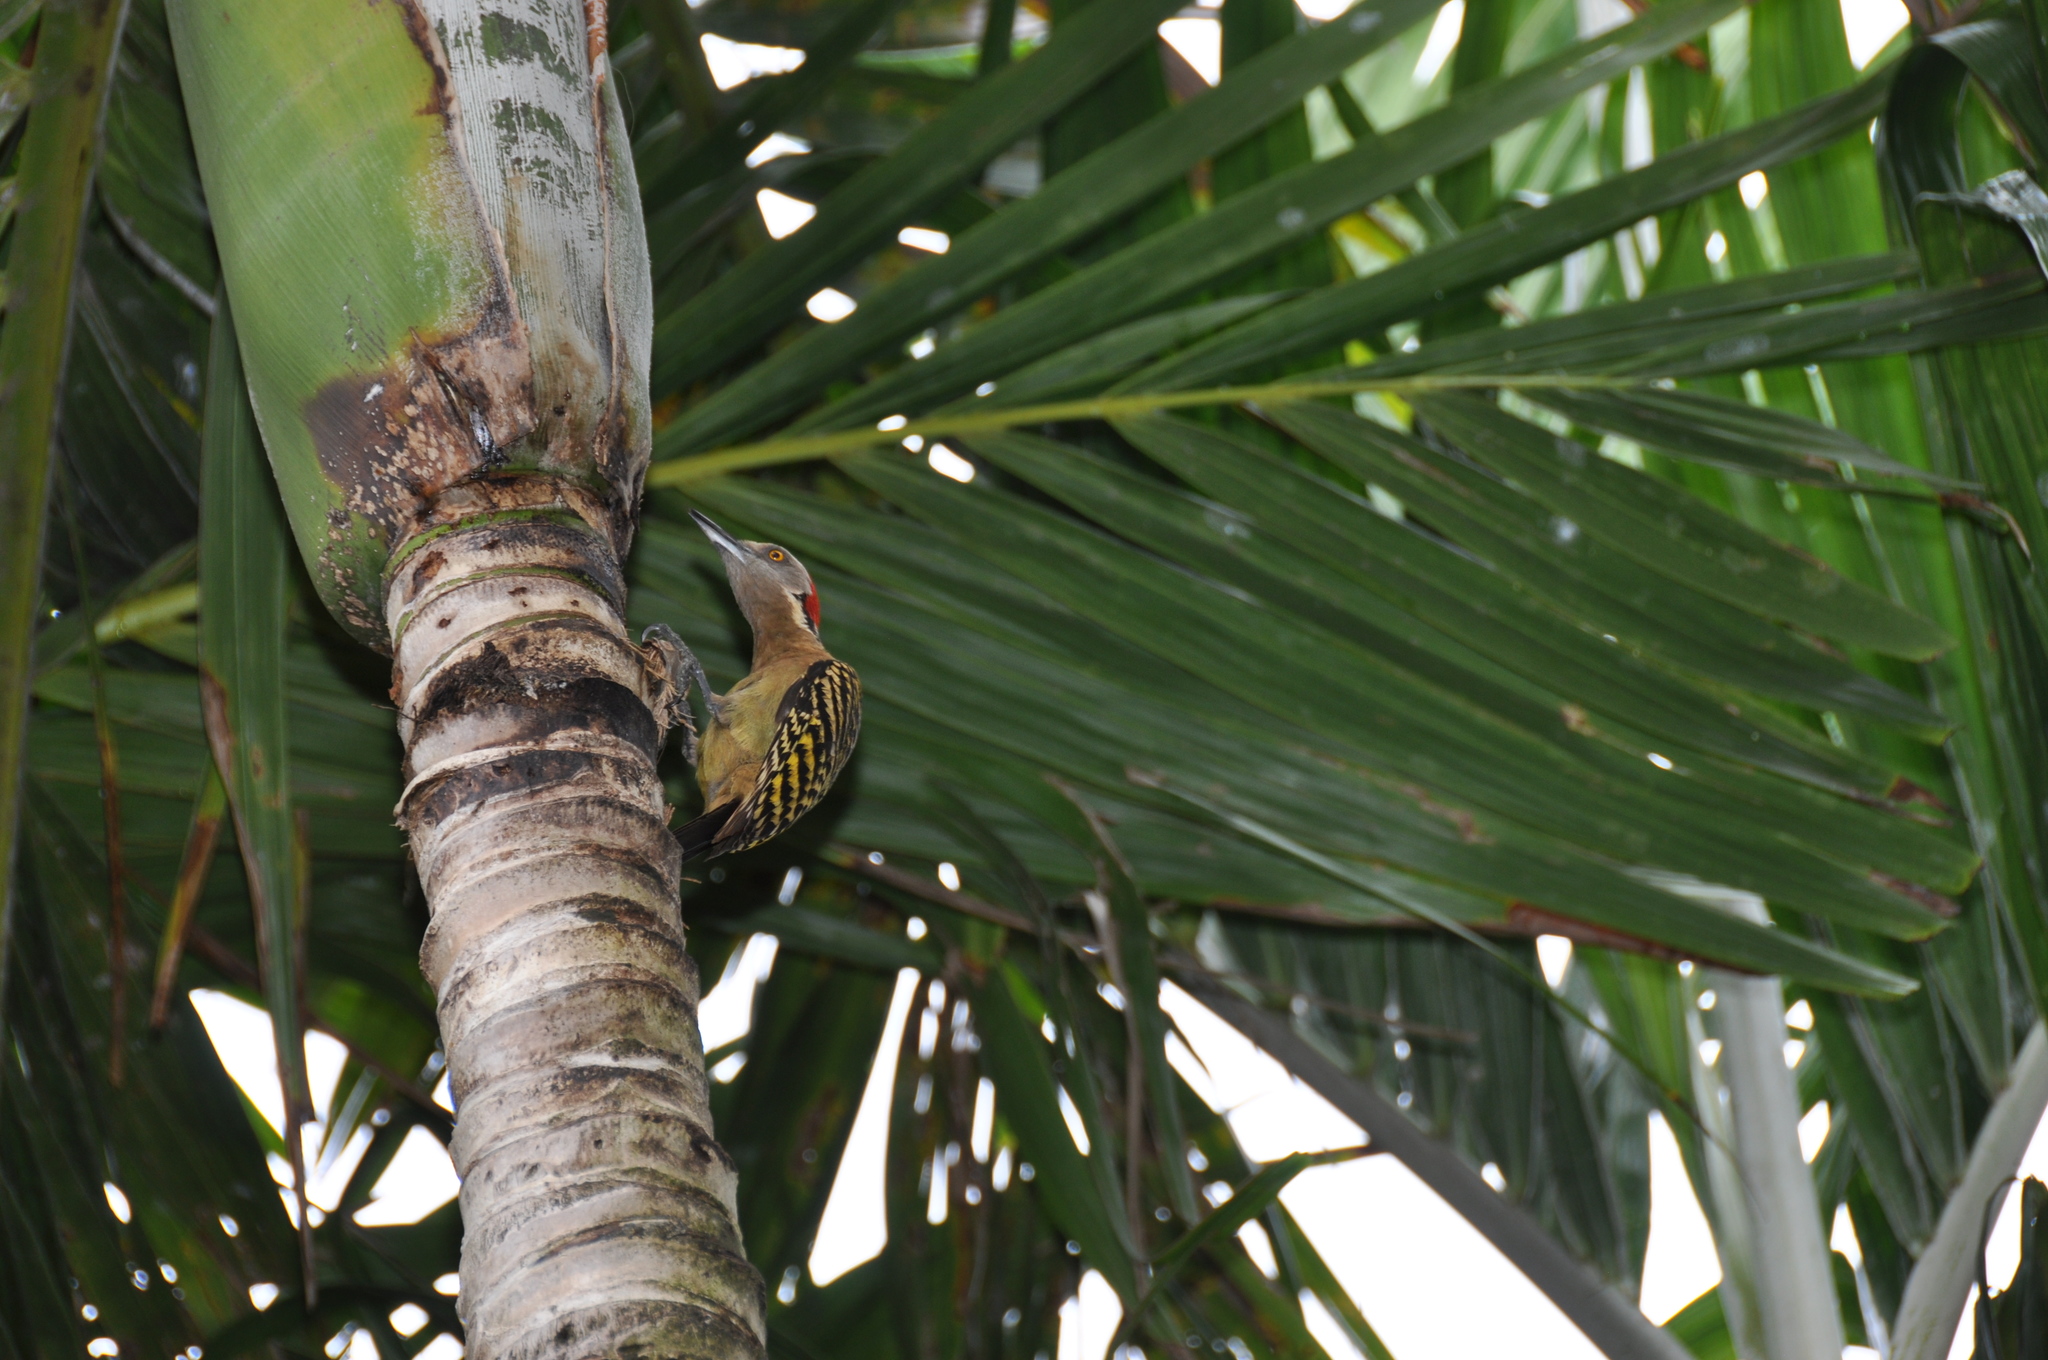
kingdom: Animalia
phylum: Chordata
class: Aves
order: Piciformes
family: Picidae
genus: Melanerpes
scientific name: Melanerpes striatus
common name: Hispaniolan woodpecker
